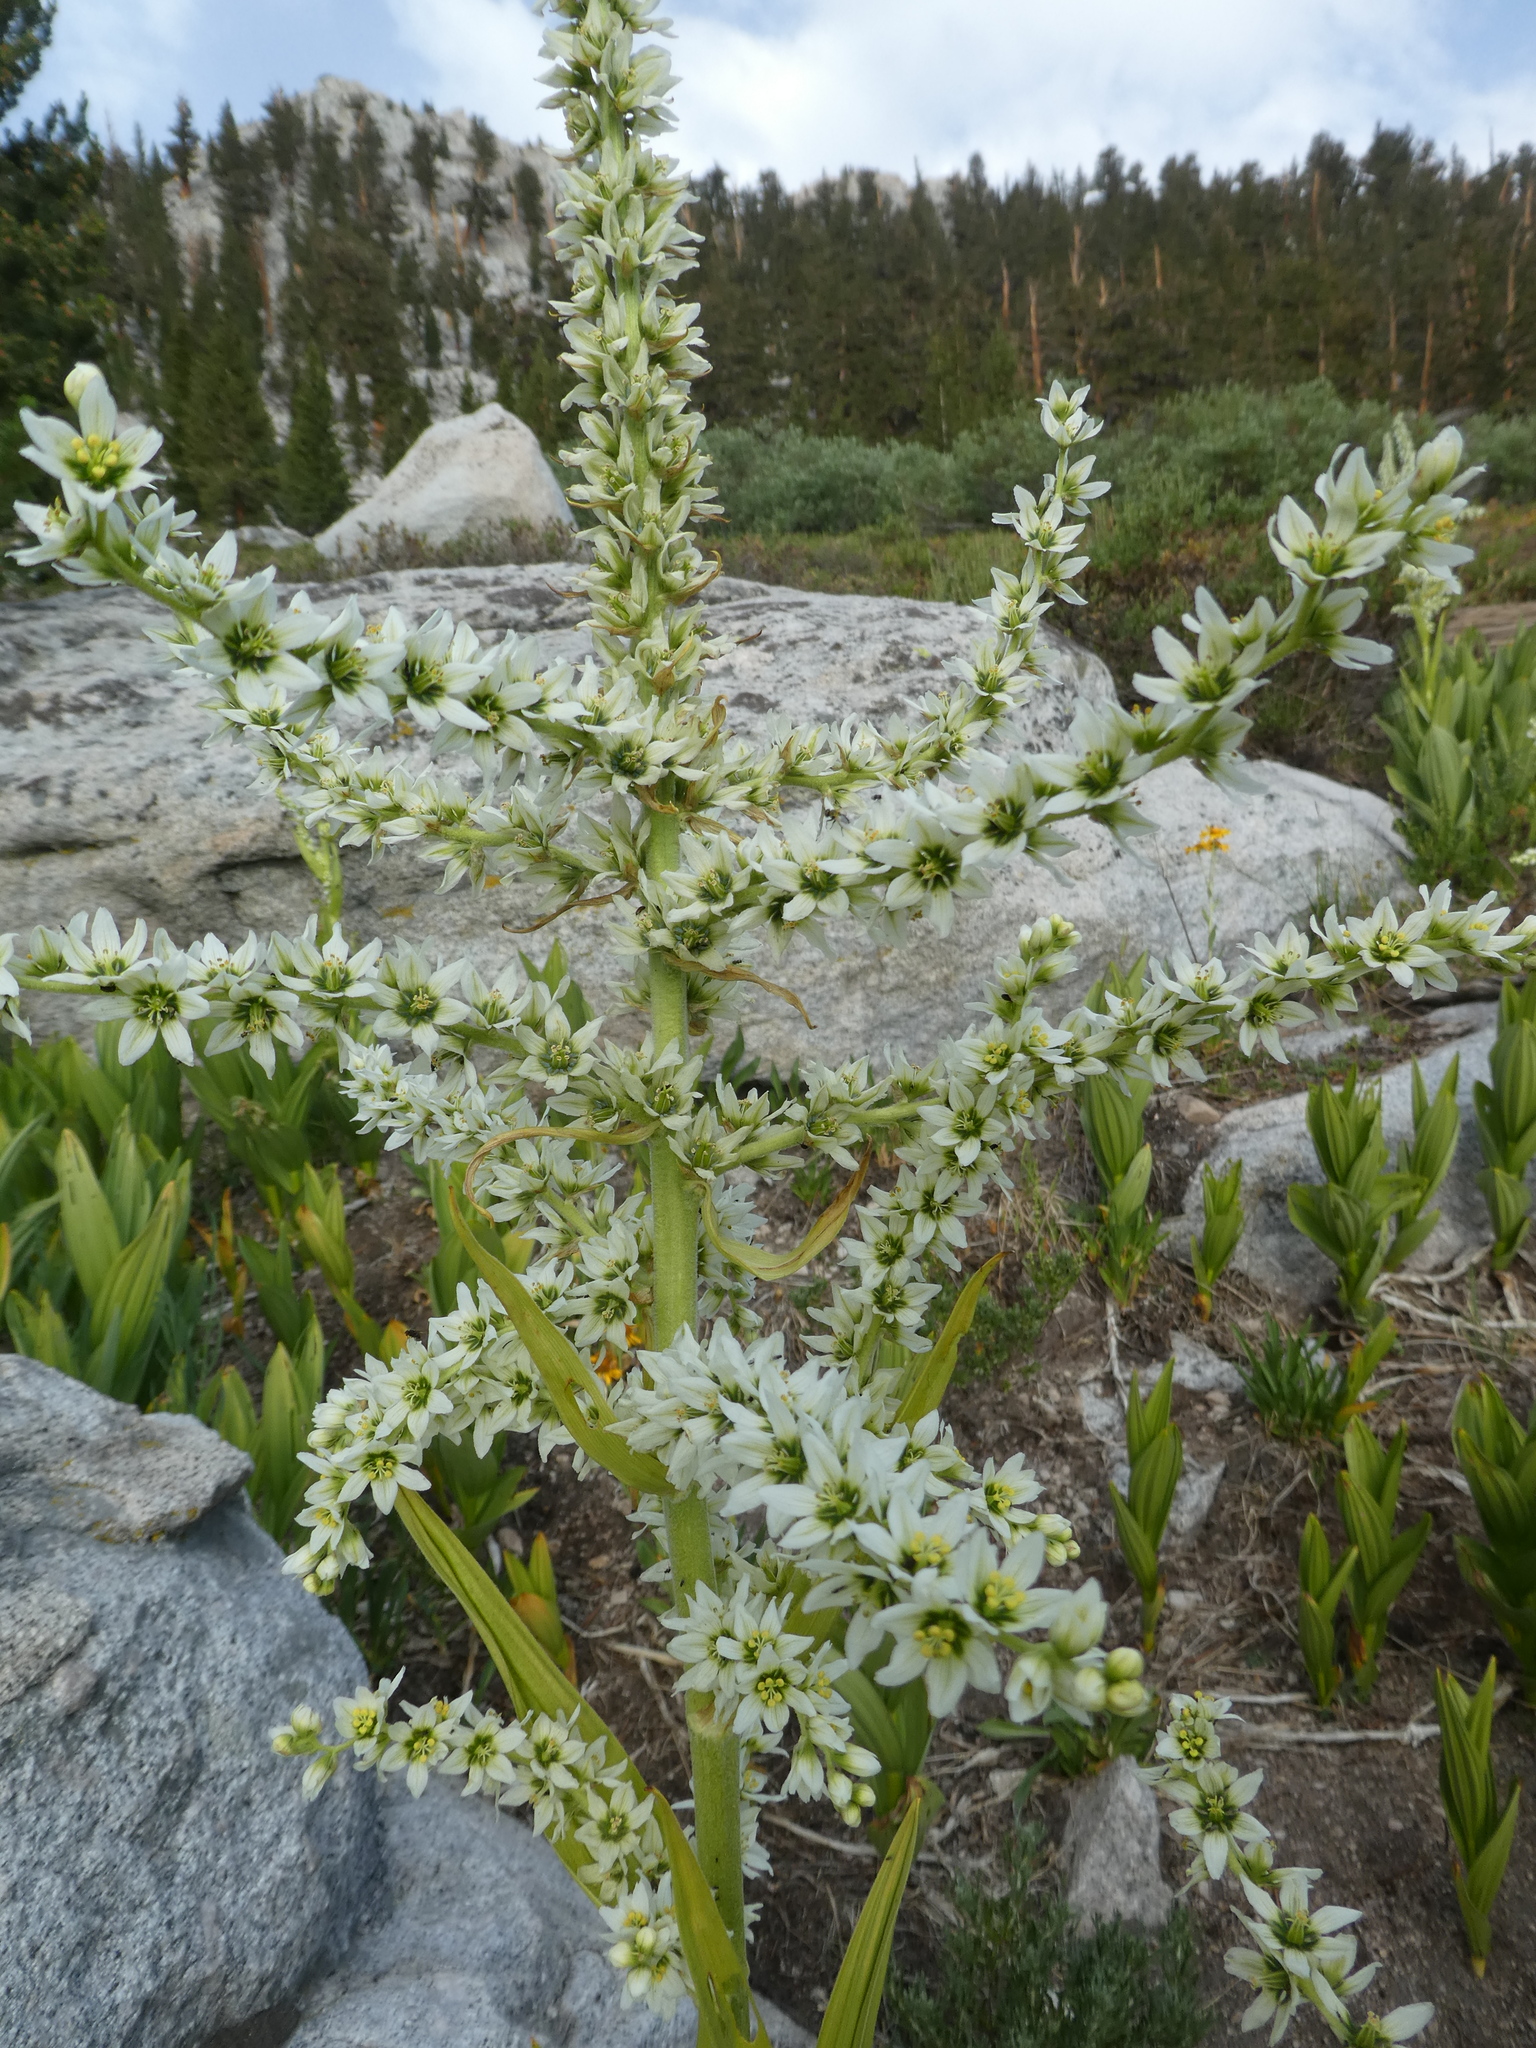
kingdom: Plantae
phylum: Tracheophyta
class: Liliopsida
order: Liliales
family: Melanthiaceae
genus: Veratrum
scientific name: Veratrum californicum
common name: California veratrum
